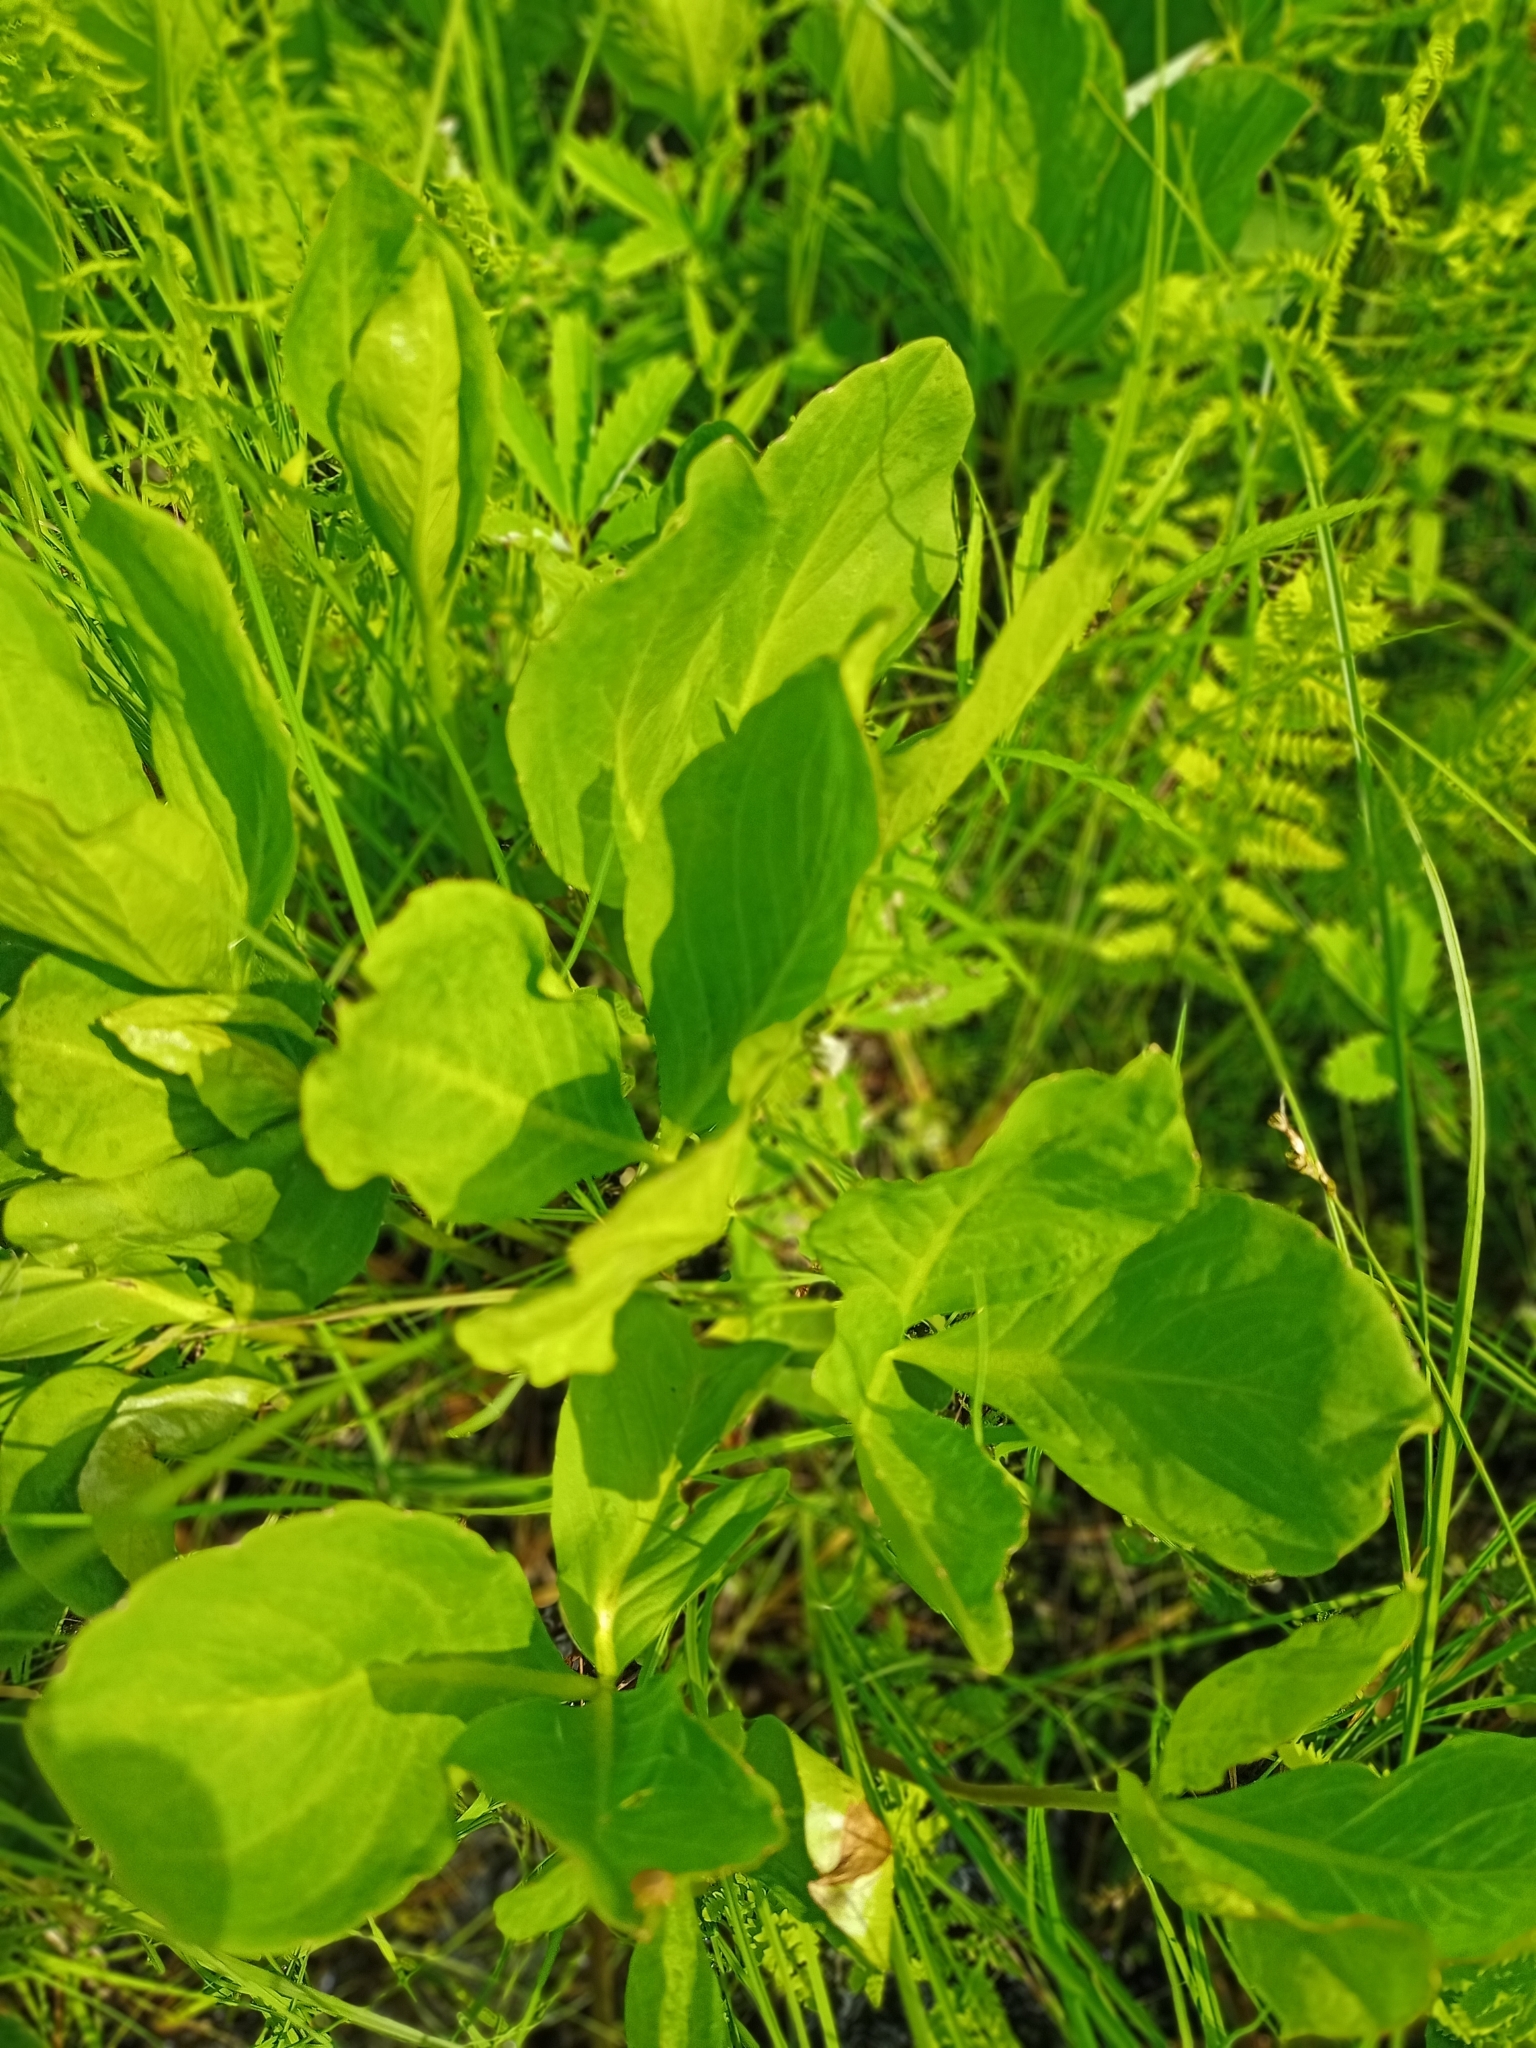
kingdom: Plantae
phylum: Tracheophyta
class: Magnoliopsida
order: Asterales
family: Menyanthaceae
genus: Menyanthes
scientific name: Menyanthes trifoliata
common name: Bogbean
